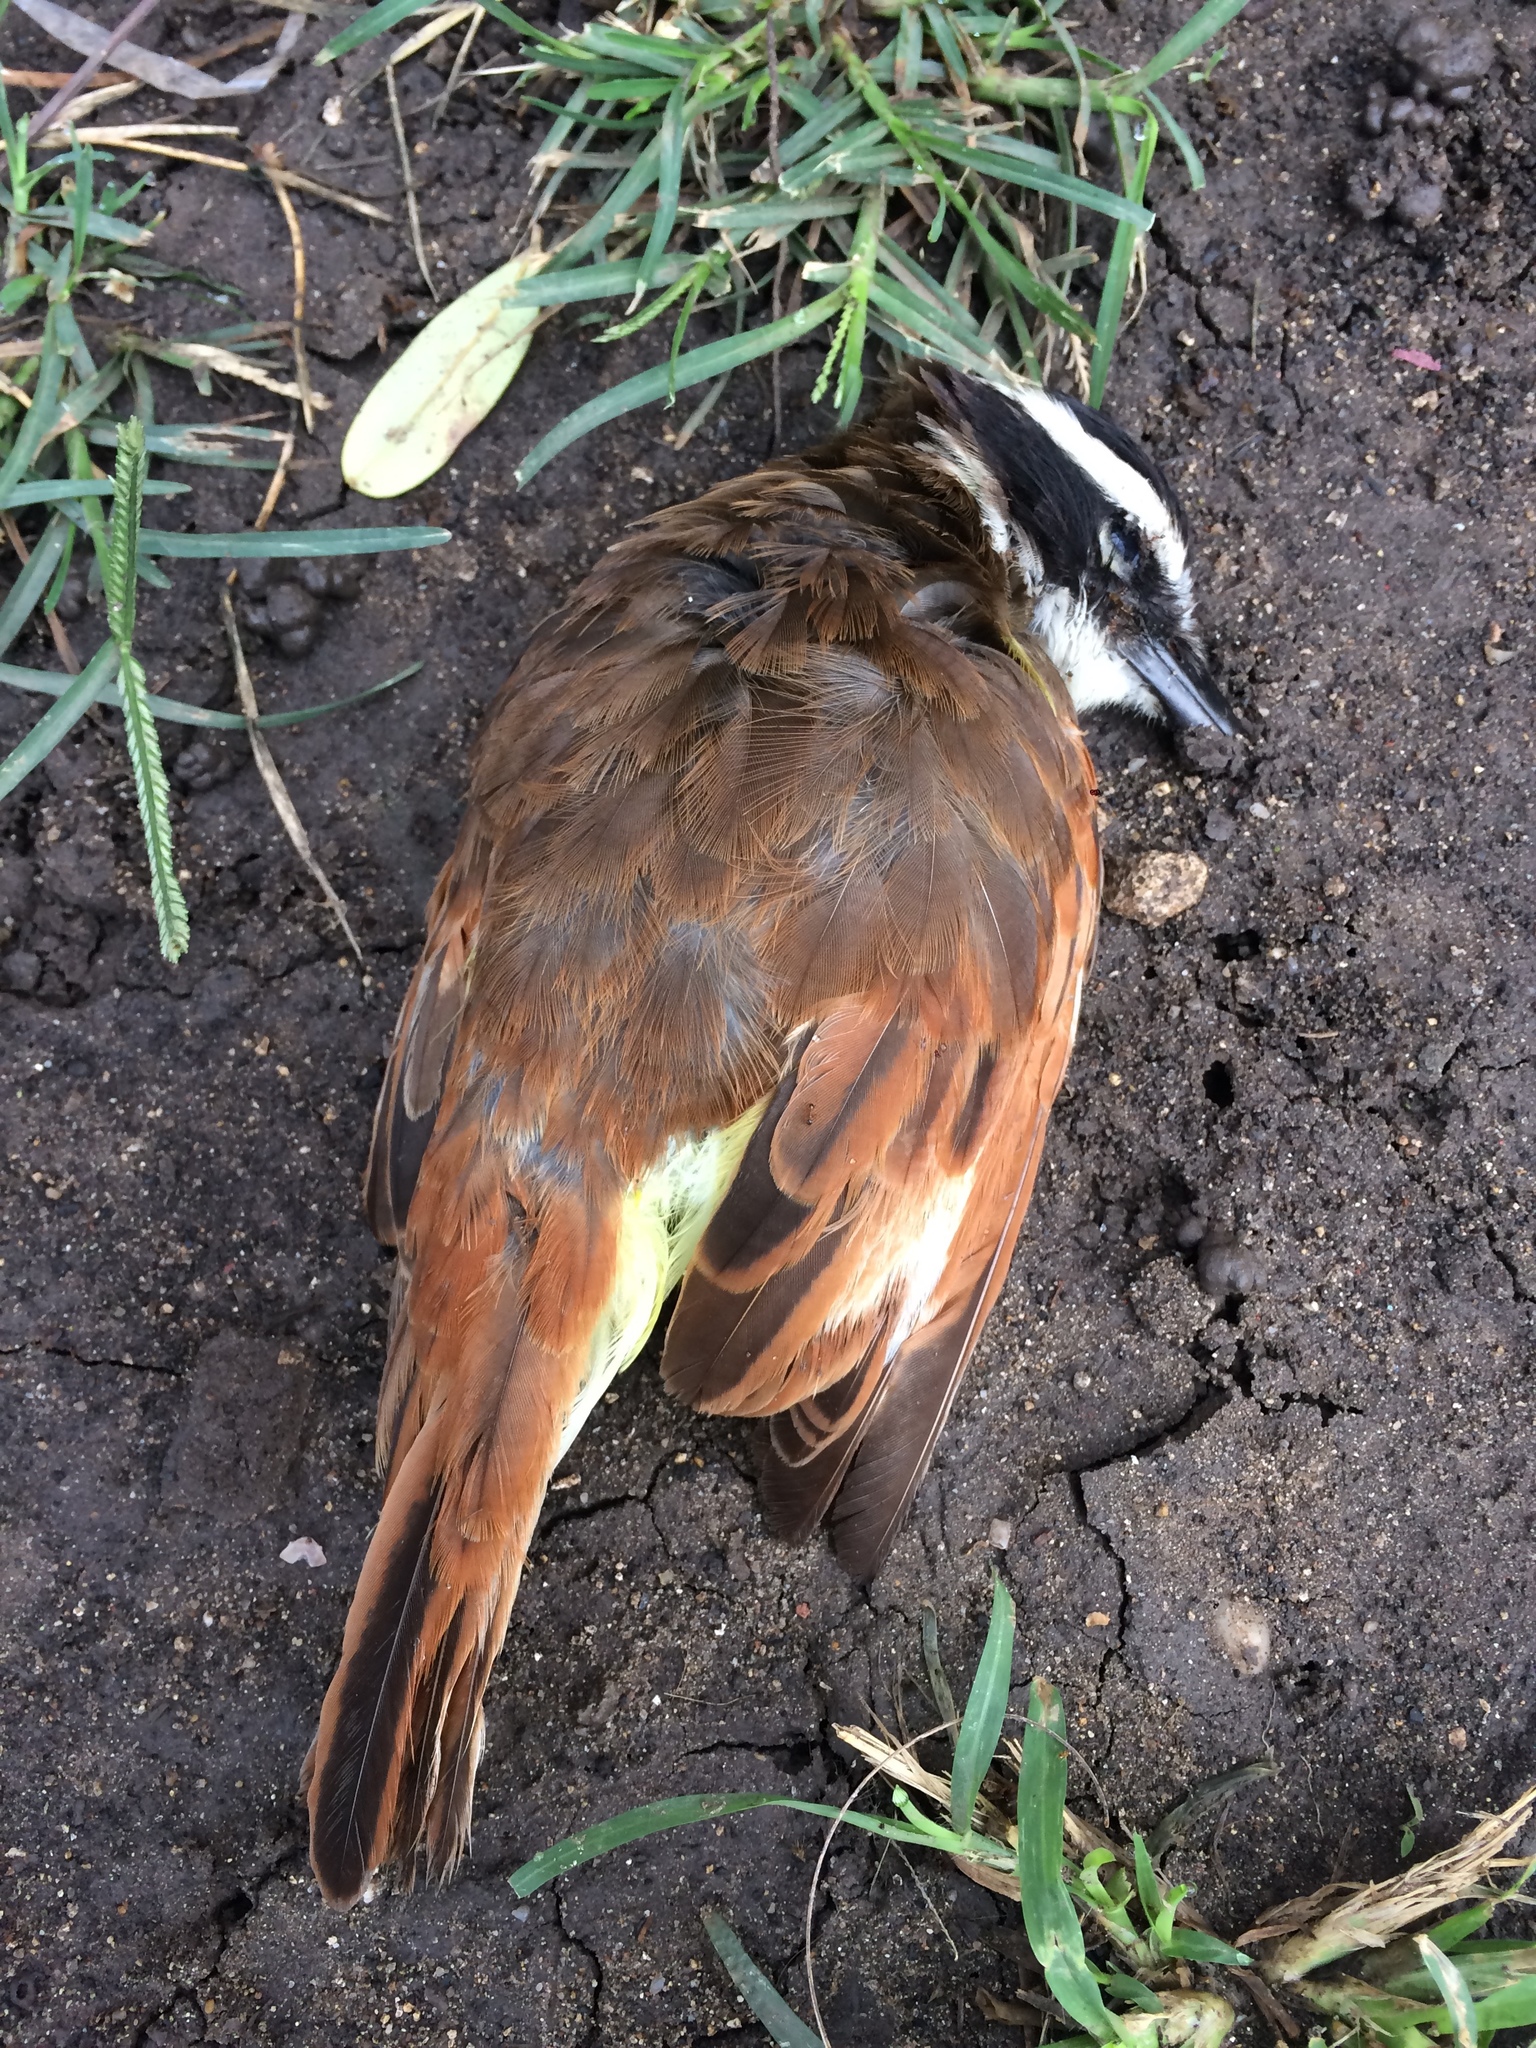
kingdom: Animalia
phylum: Chordata
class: Aves
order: Passeriformes
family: Tyrannidae
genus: Pitangus
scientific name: Pitangus sulphuratus
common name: Great kiskadee
